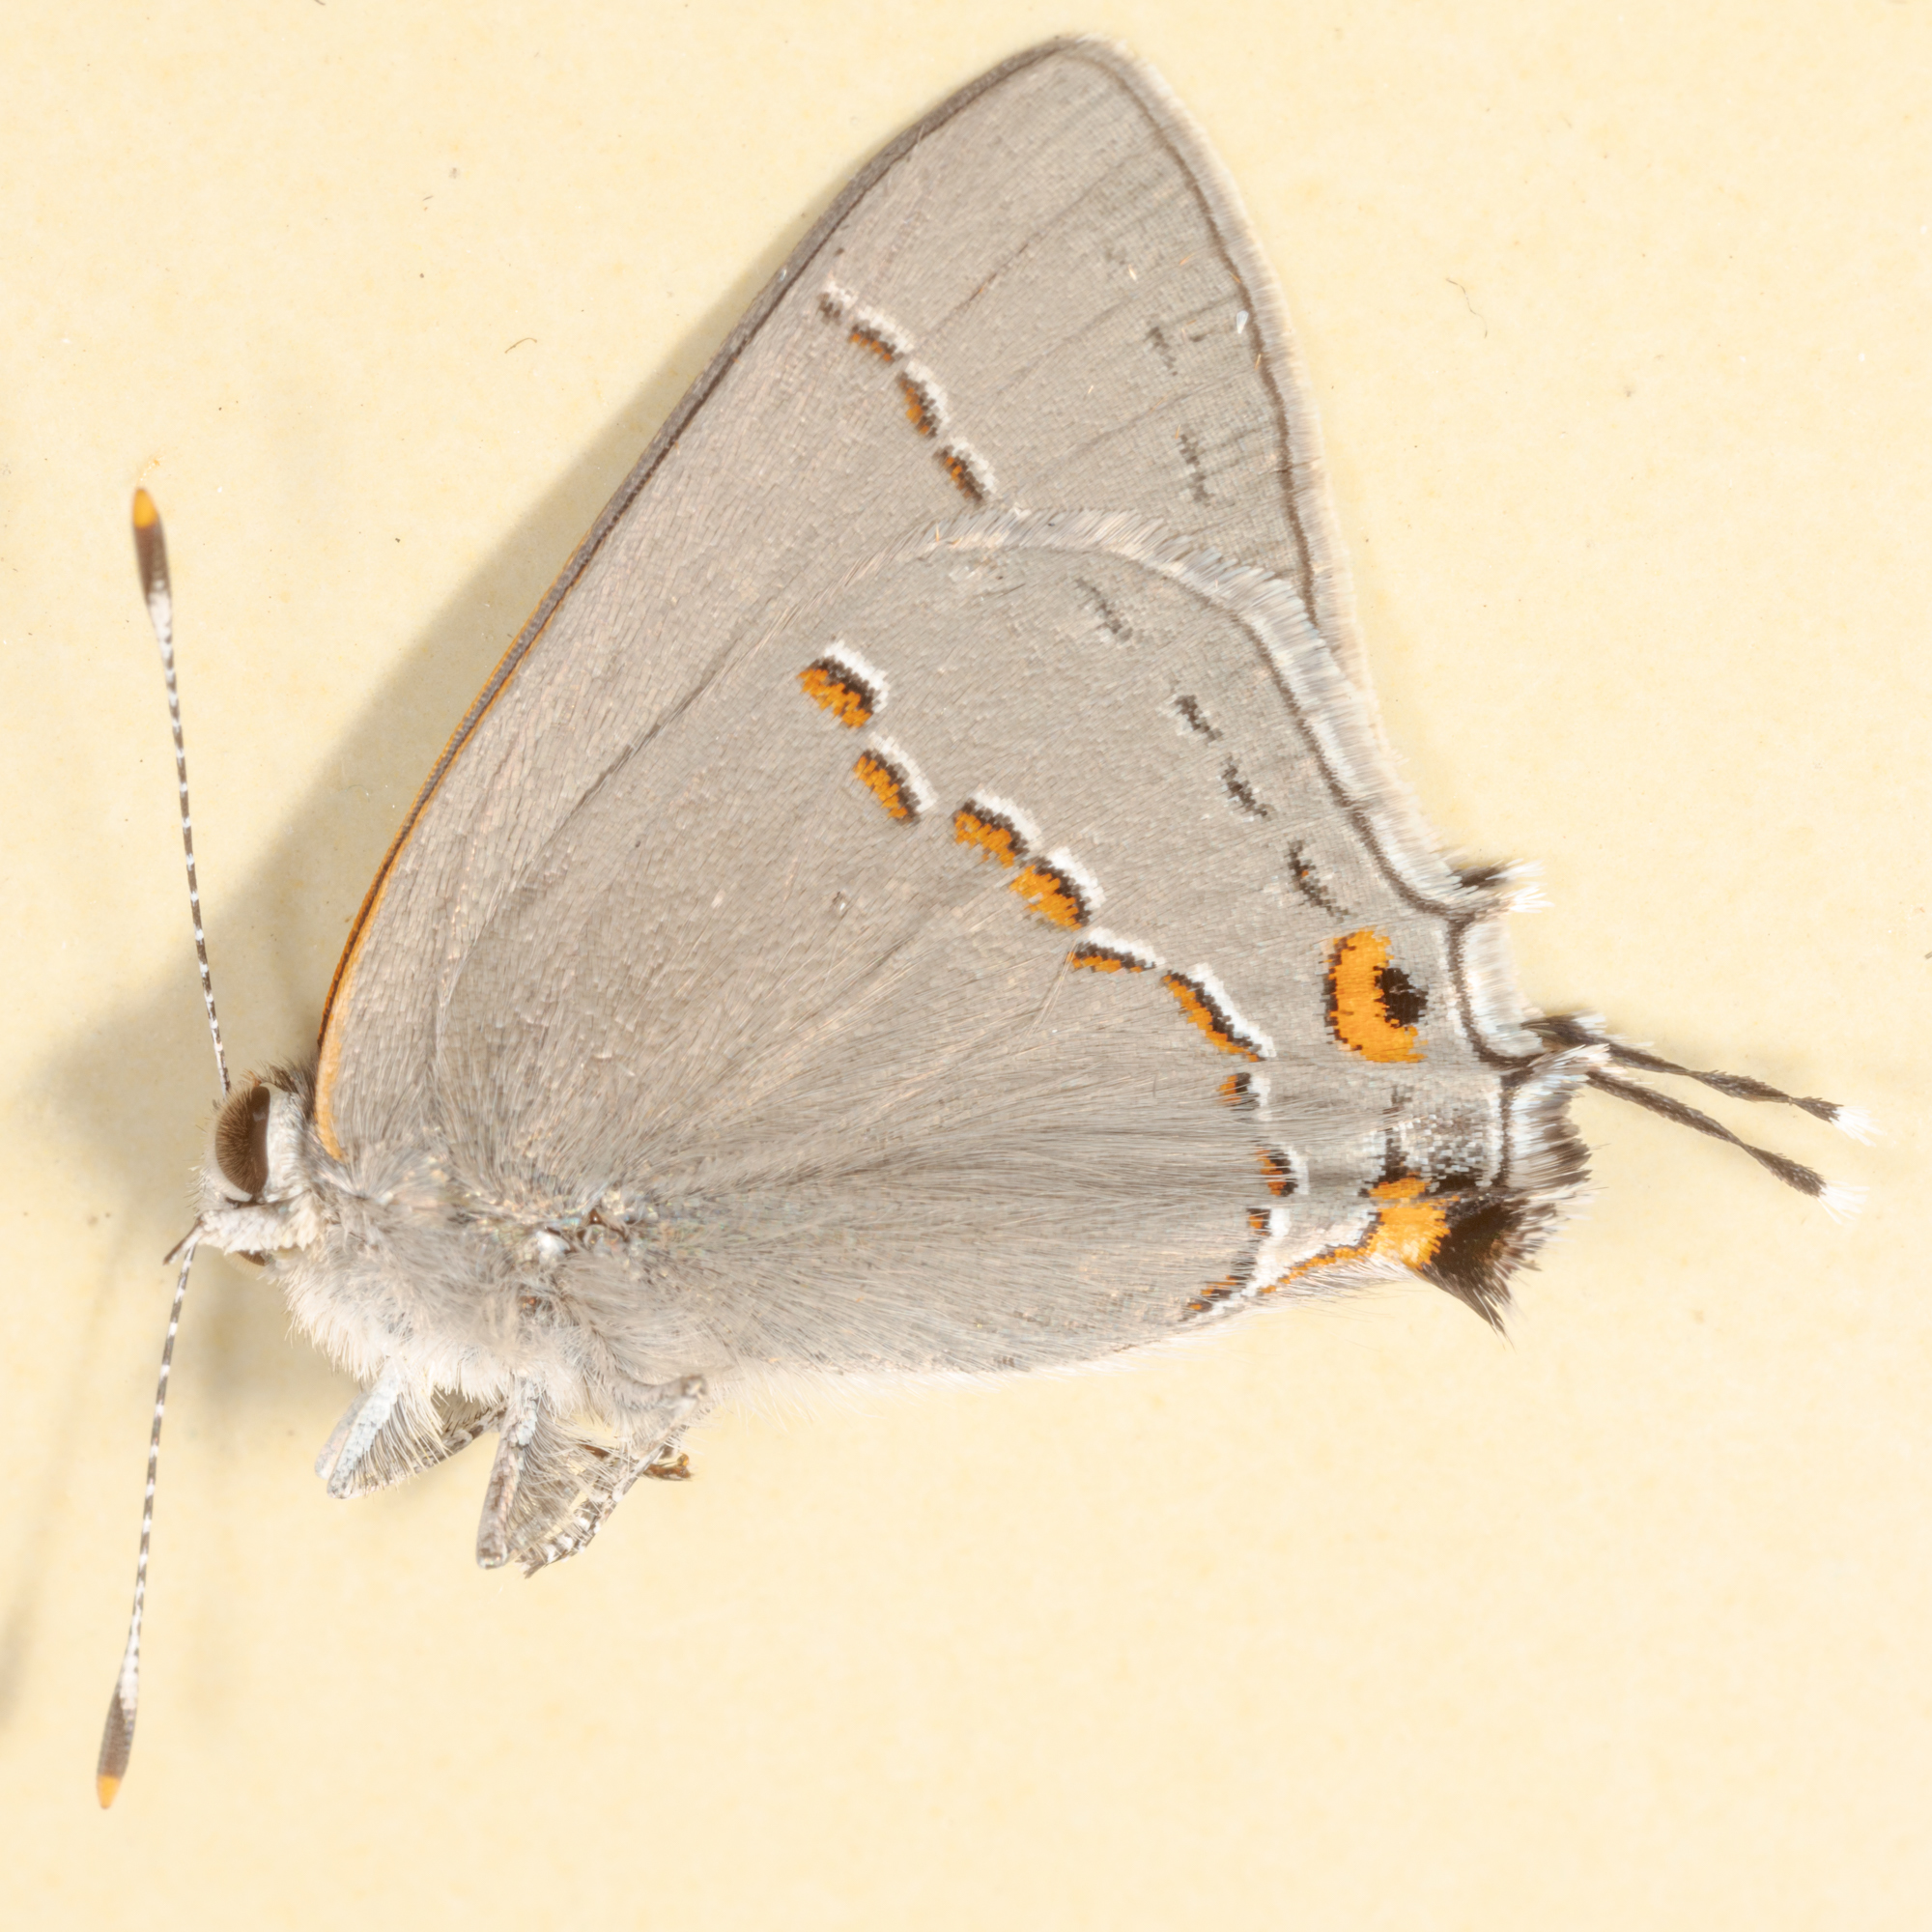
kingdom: Animalia
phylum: Arthropoda
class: Insecta
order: Lepidoptera
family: Lycaenidae
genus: Strymon
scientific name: Strymon melinus
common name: Gray hairstreak
